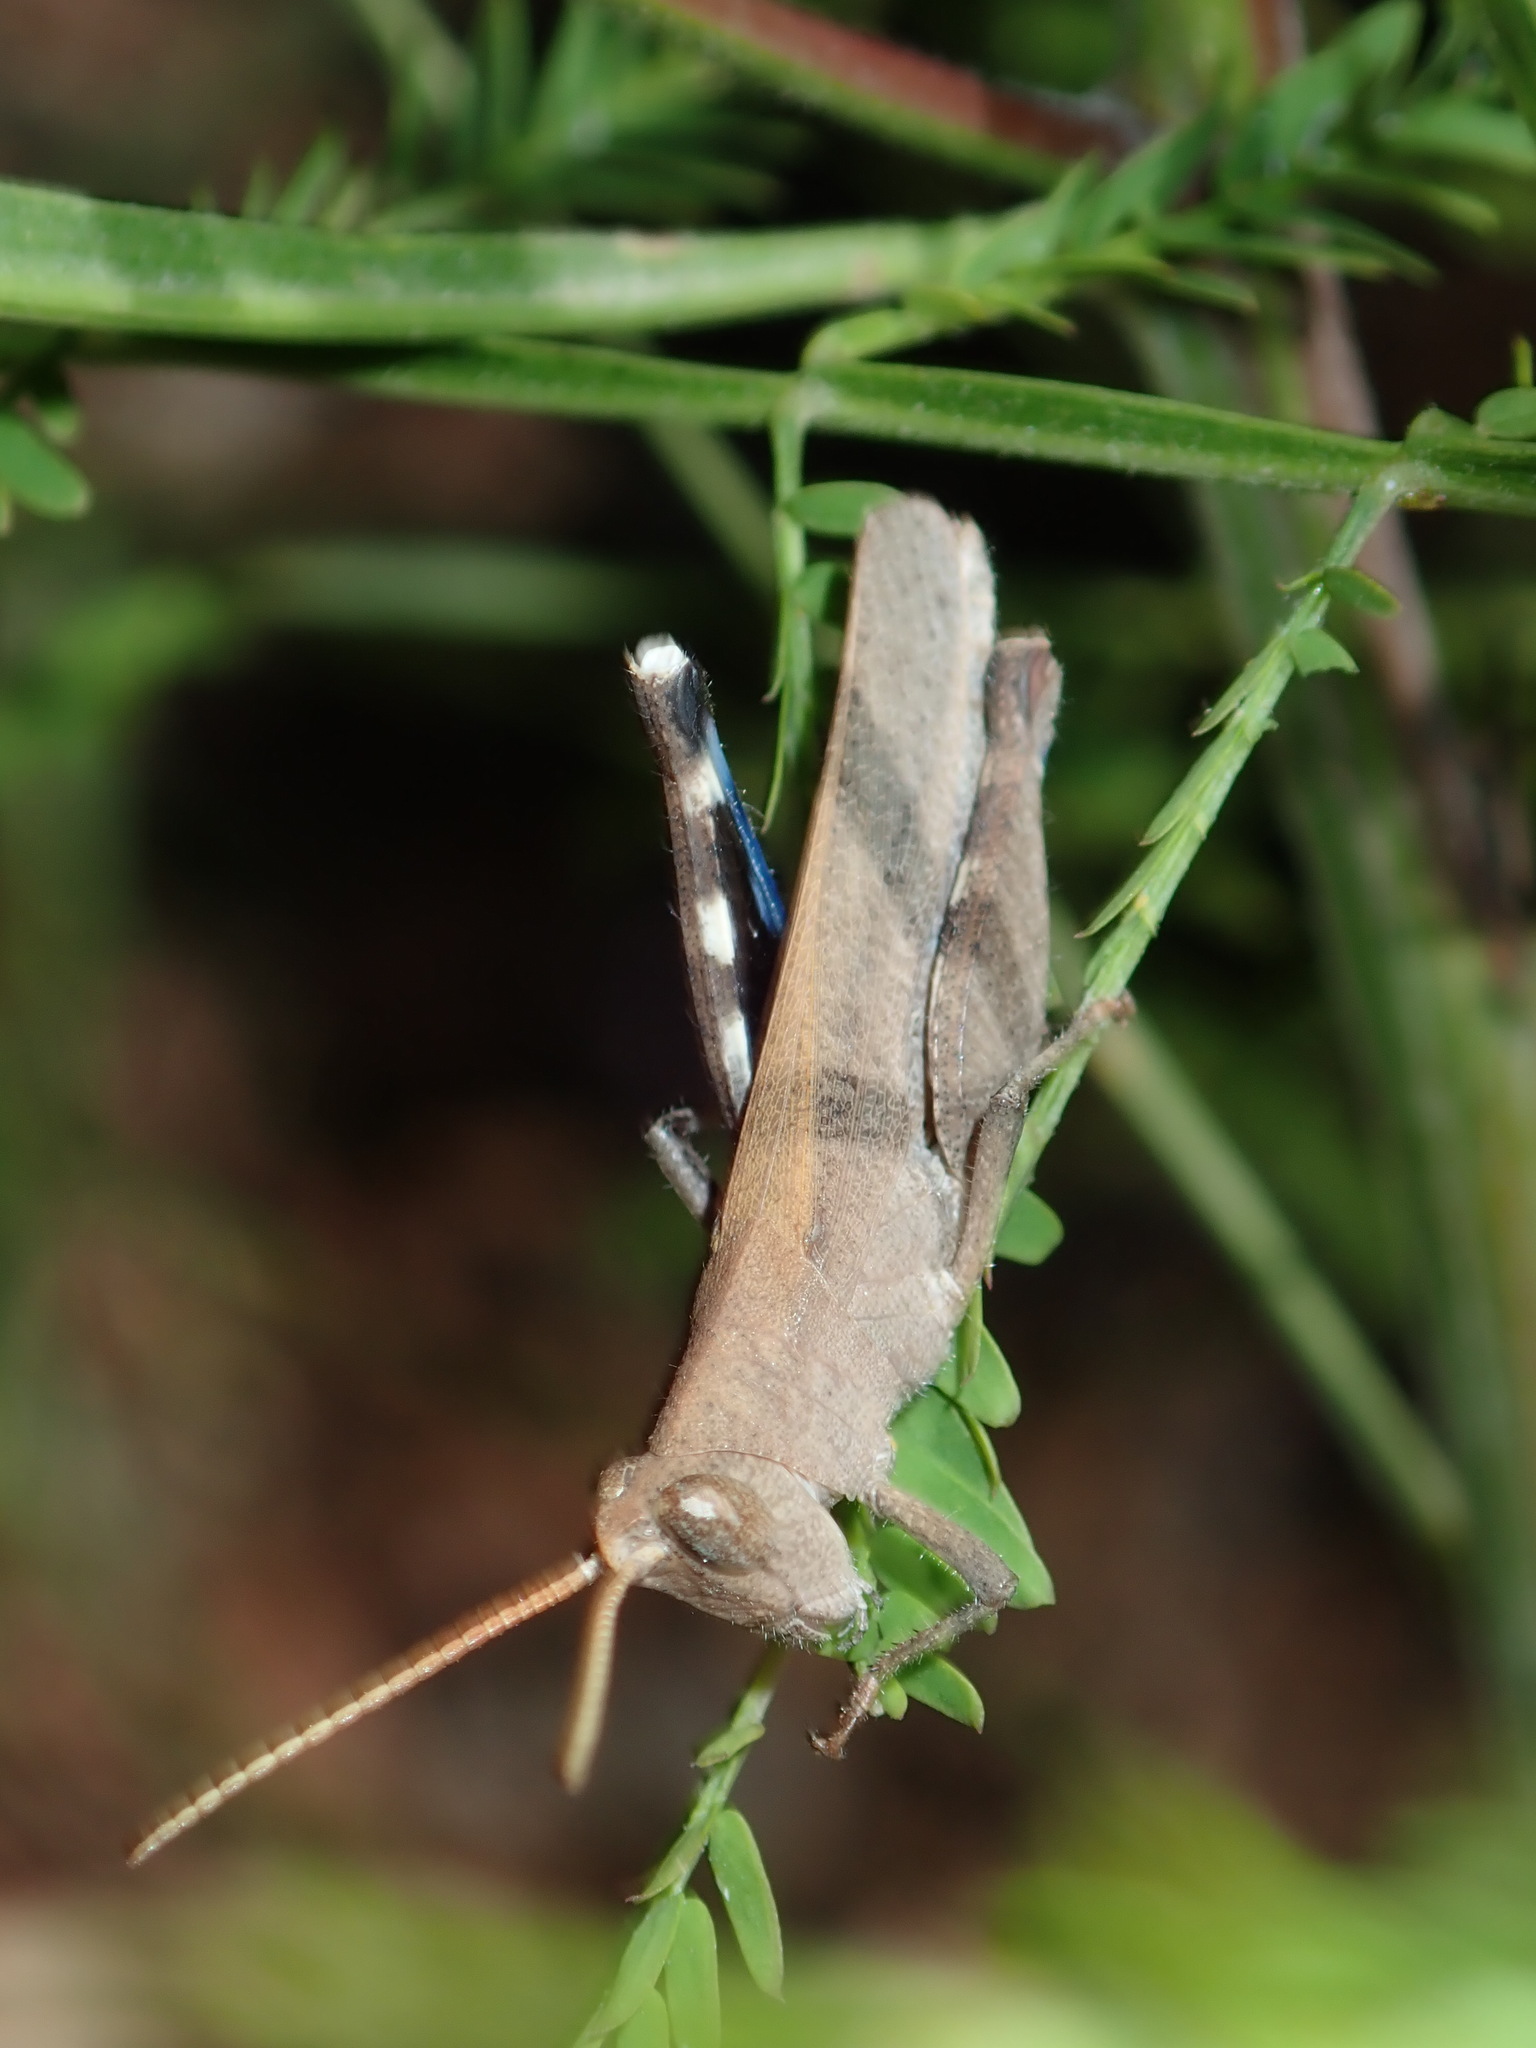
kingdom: Animalia
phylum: Arthropoda
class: Insecta
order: Orthoptera
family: Acrididae
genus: Goniaea
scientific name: Goniaea opomaloides
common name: Mimetic gumleaf grasshopper
